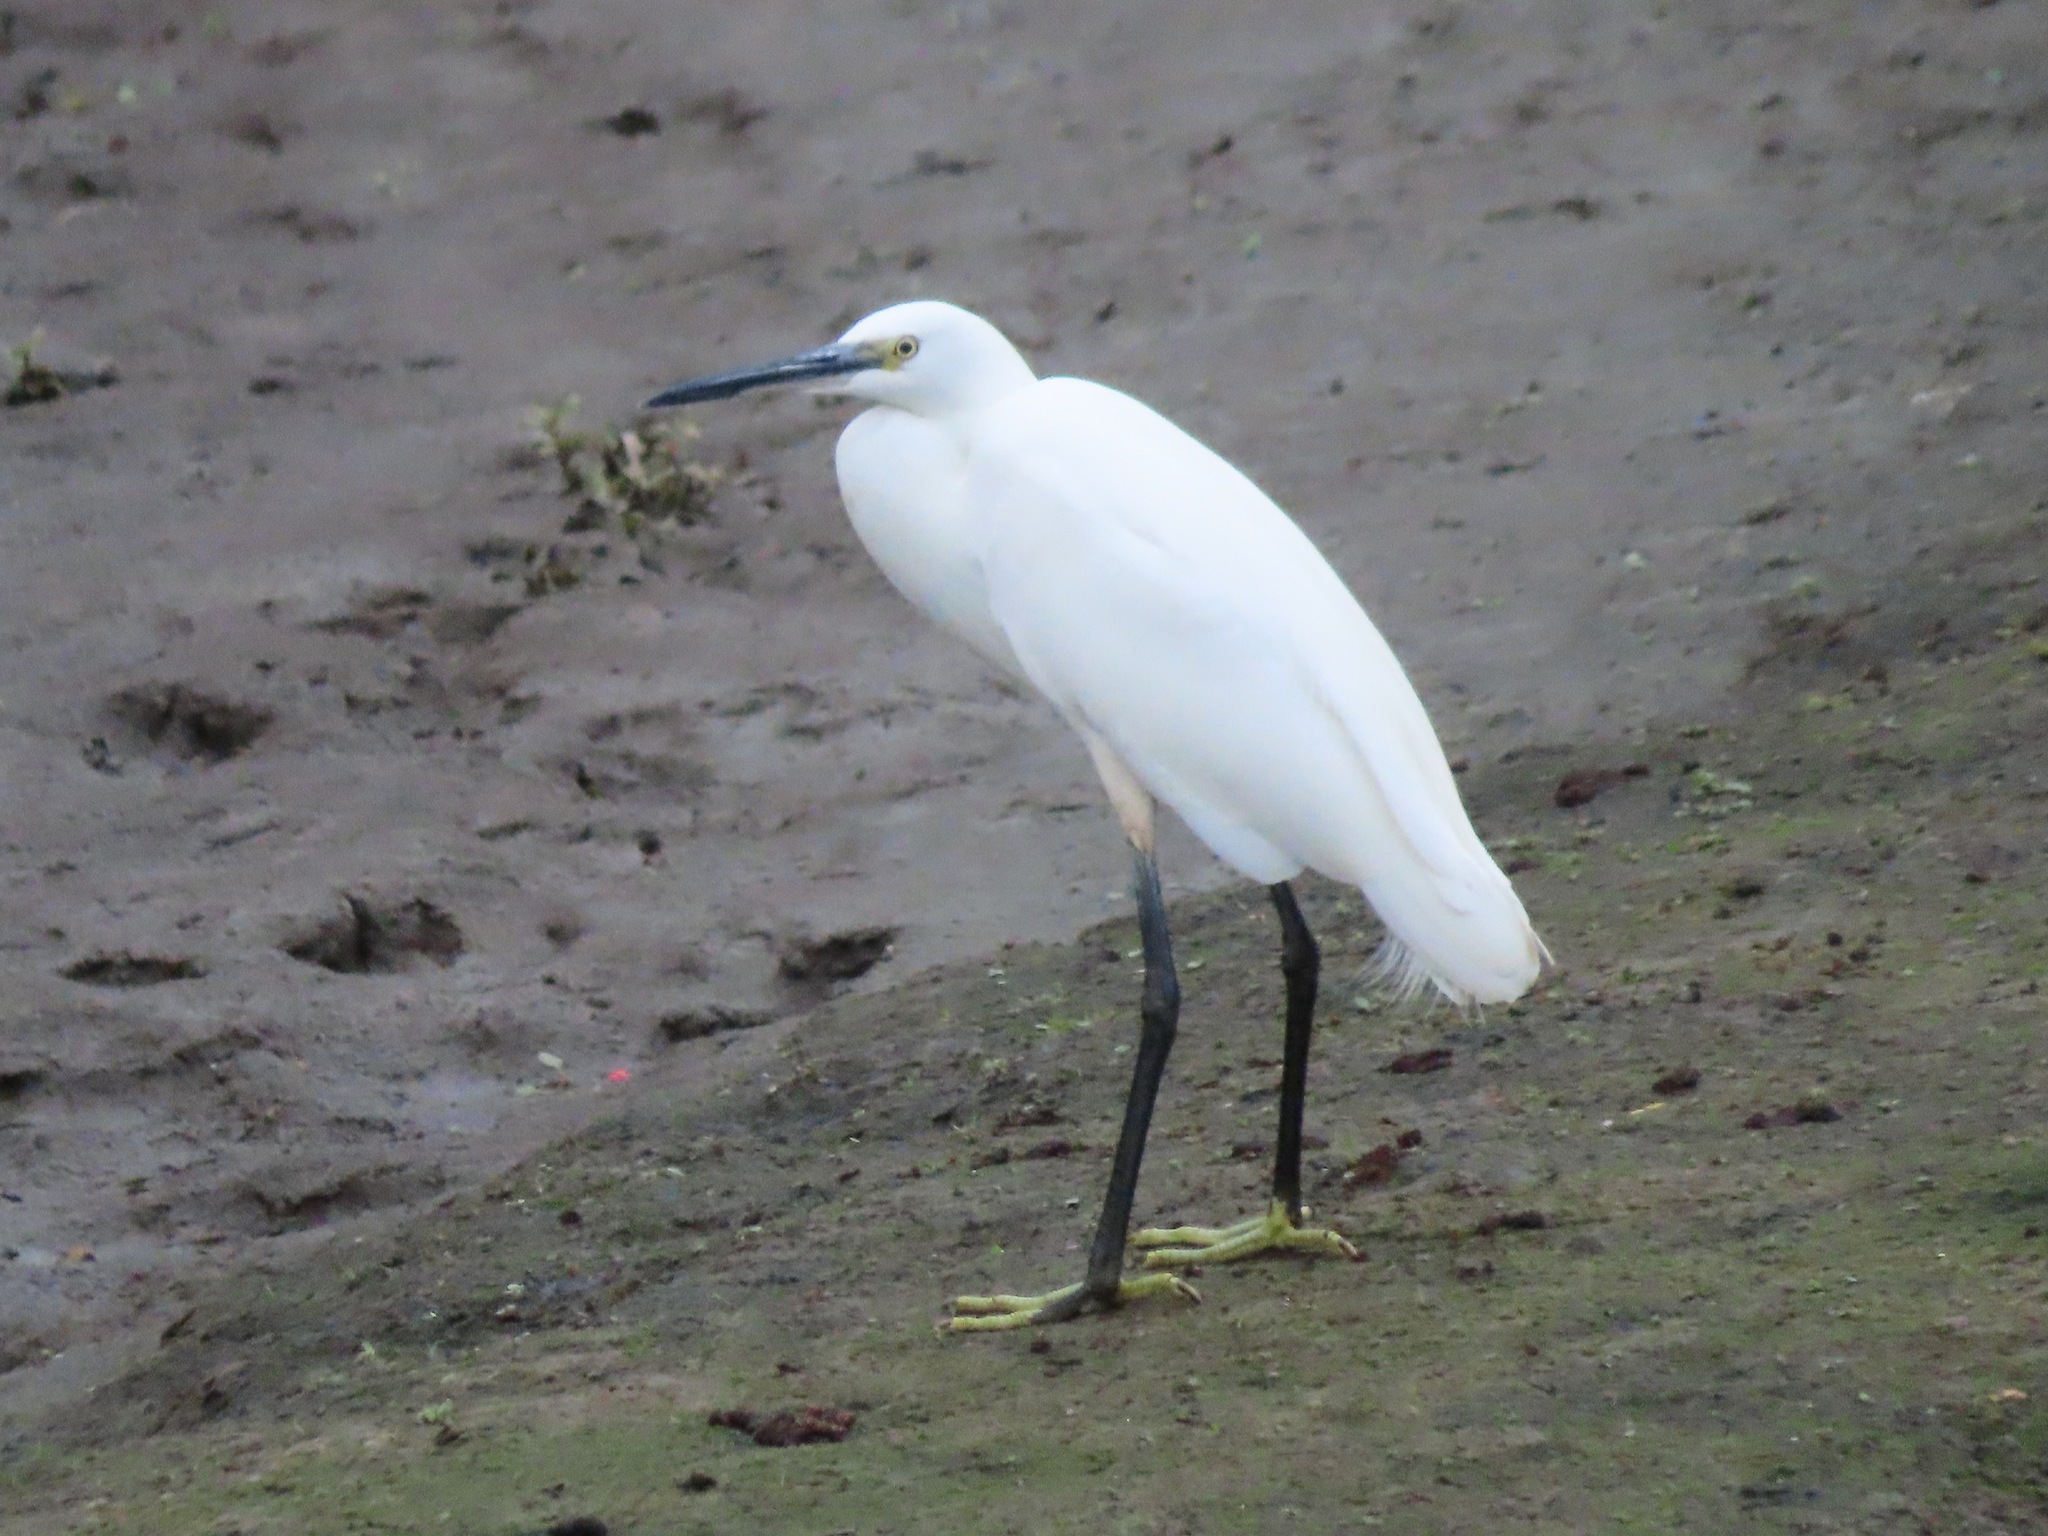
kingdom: Animalia
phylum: Chordata
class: Aves
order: Pelecaniformes
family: Ardeidae
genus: Egretta
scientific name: Egretta garzetta
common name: Little egret
